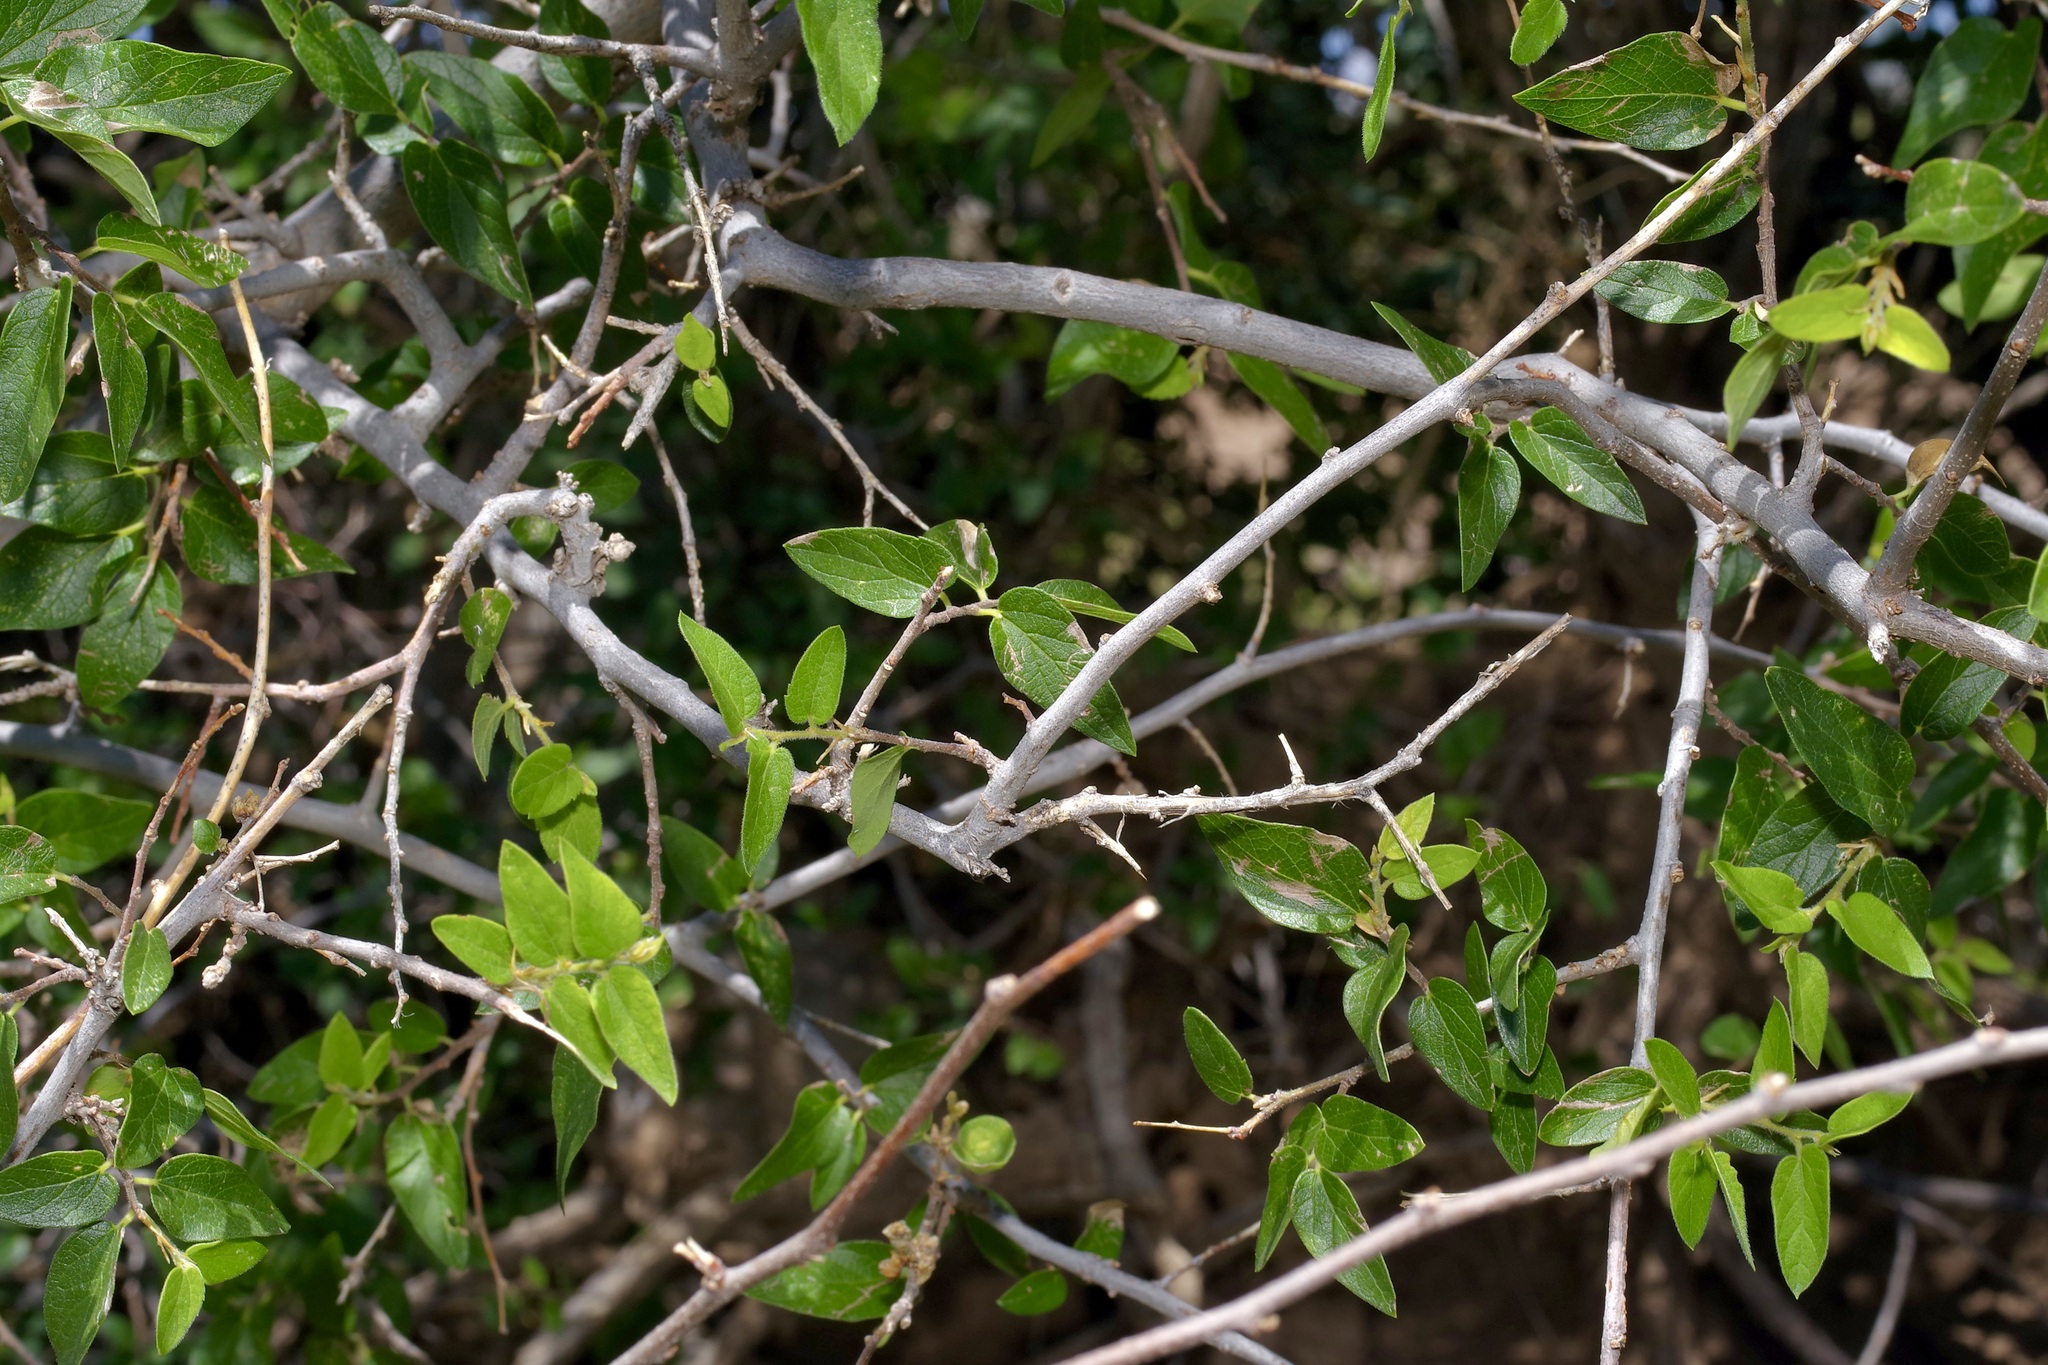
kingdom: Plantae
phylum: Tracheophyta
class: Magnoliopsida
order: Rosales
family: Cannabaceae
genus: Celtis
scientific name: Celtis reticulata
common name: Netleaf hackberry
